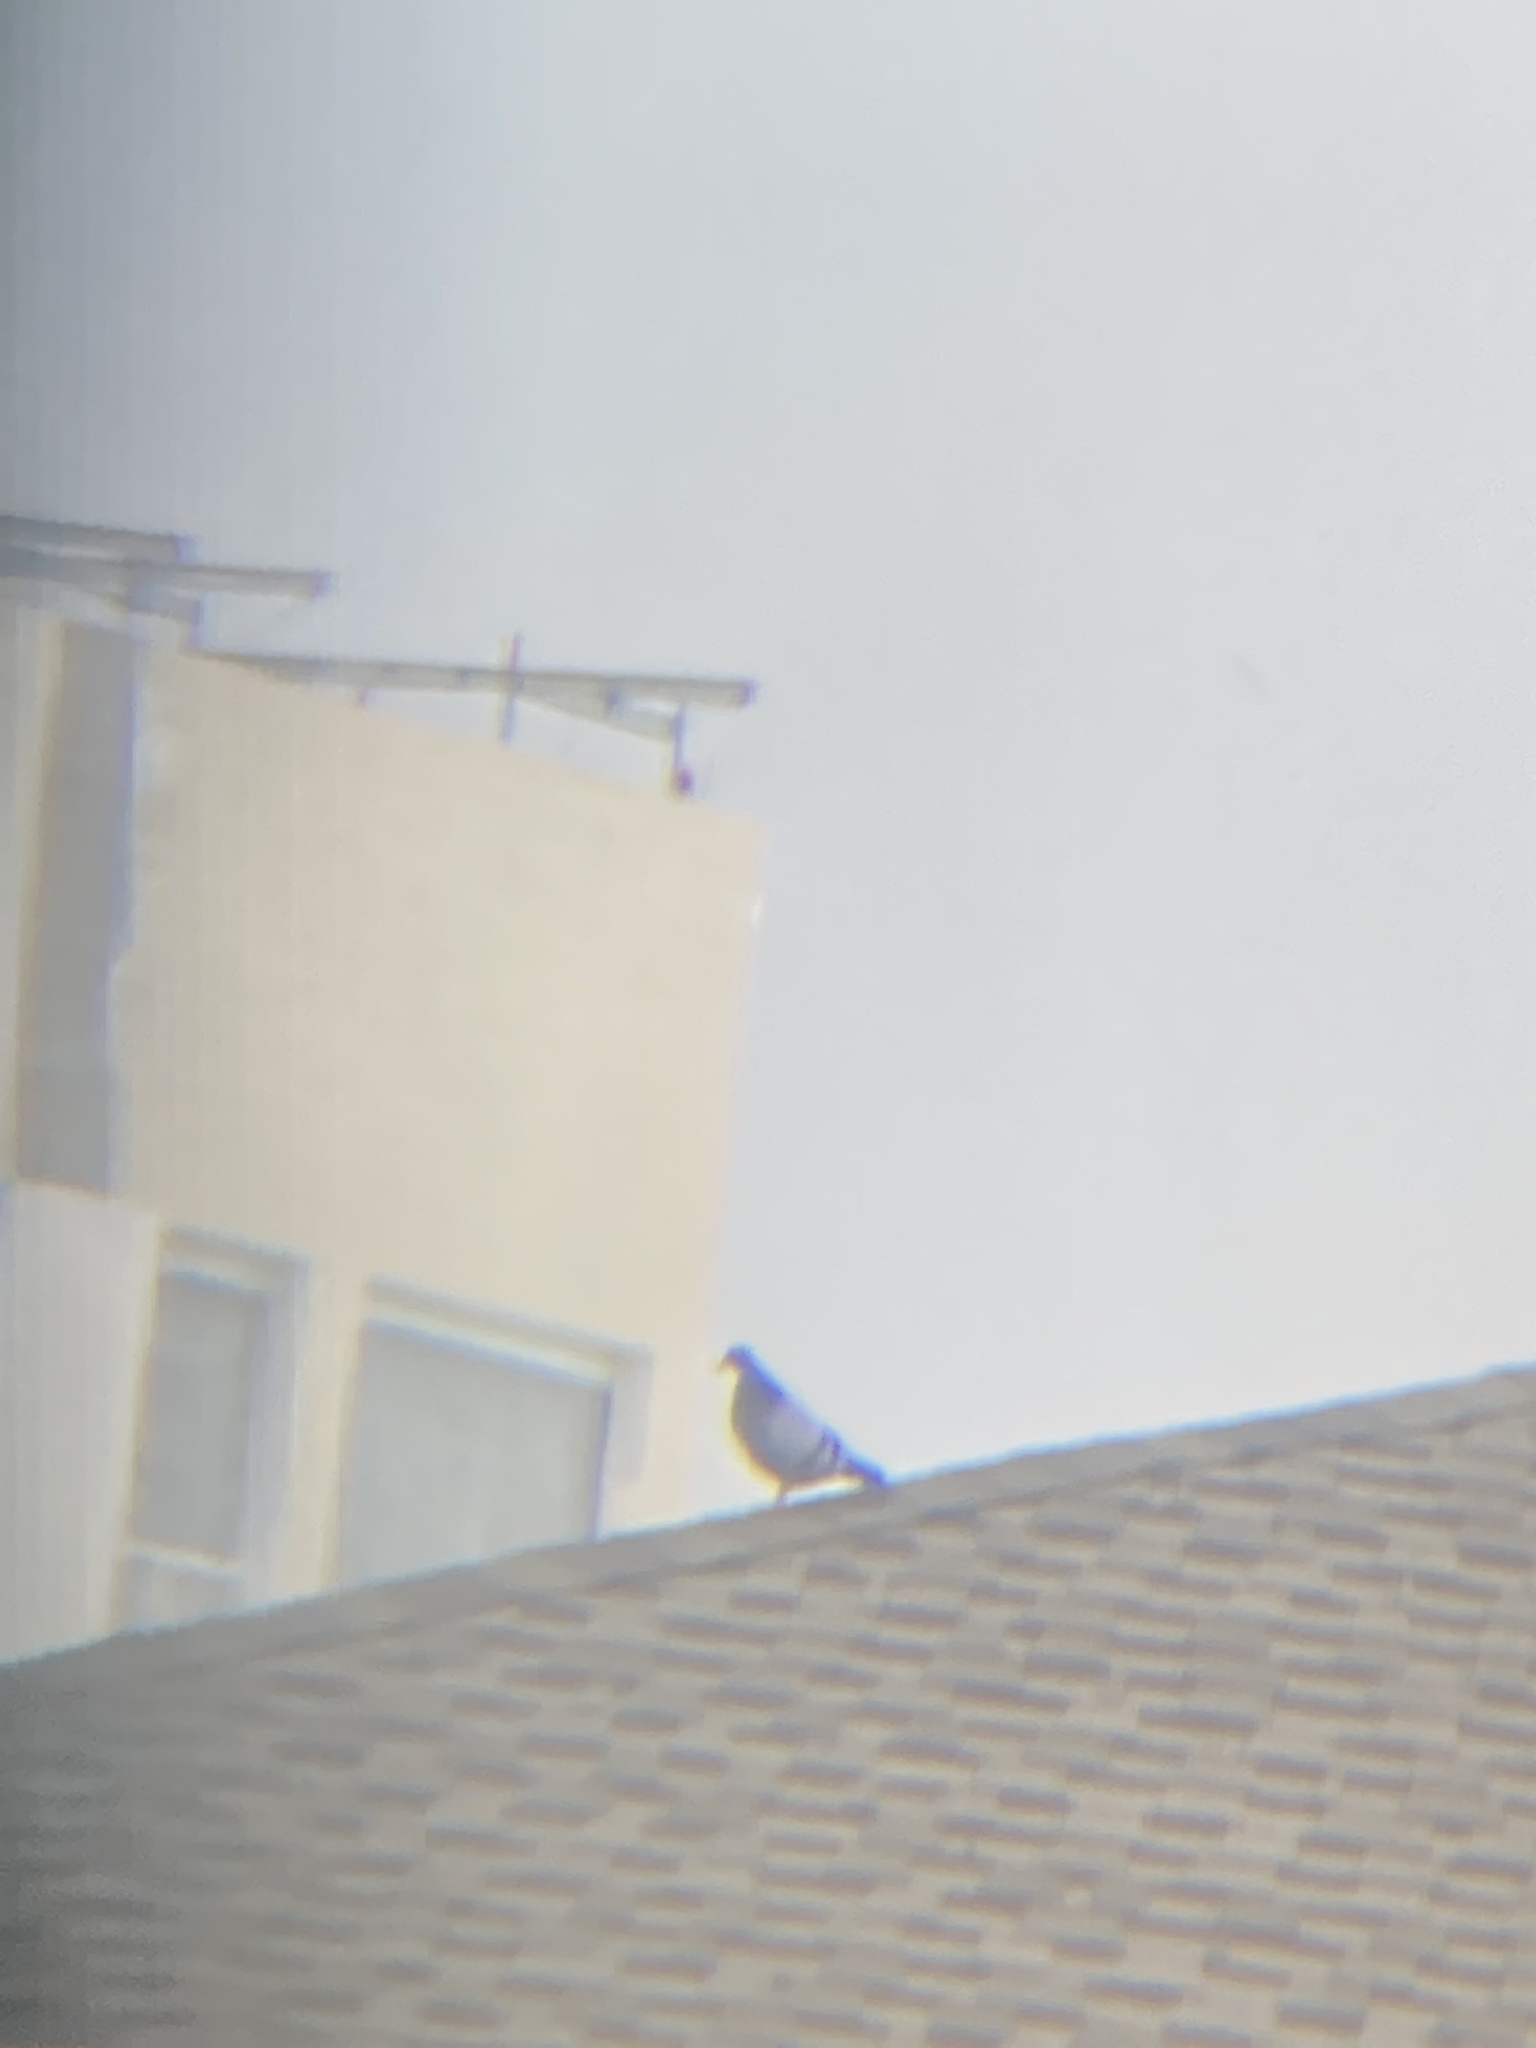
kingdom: Animalia
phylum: Chordata
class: Aves
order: Columbiformes
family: Columbidae
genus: Columba
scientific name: Columba livia
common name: Rock pigeon
